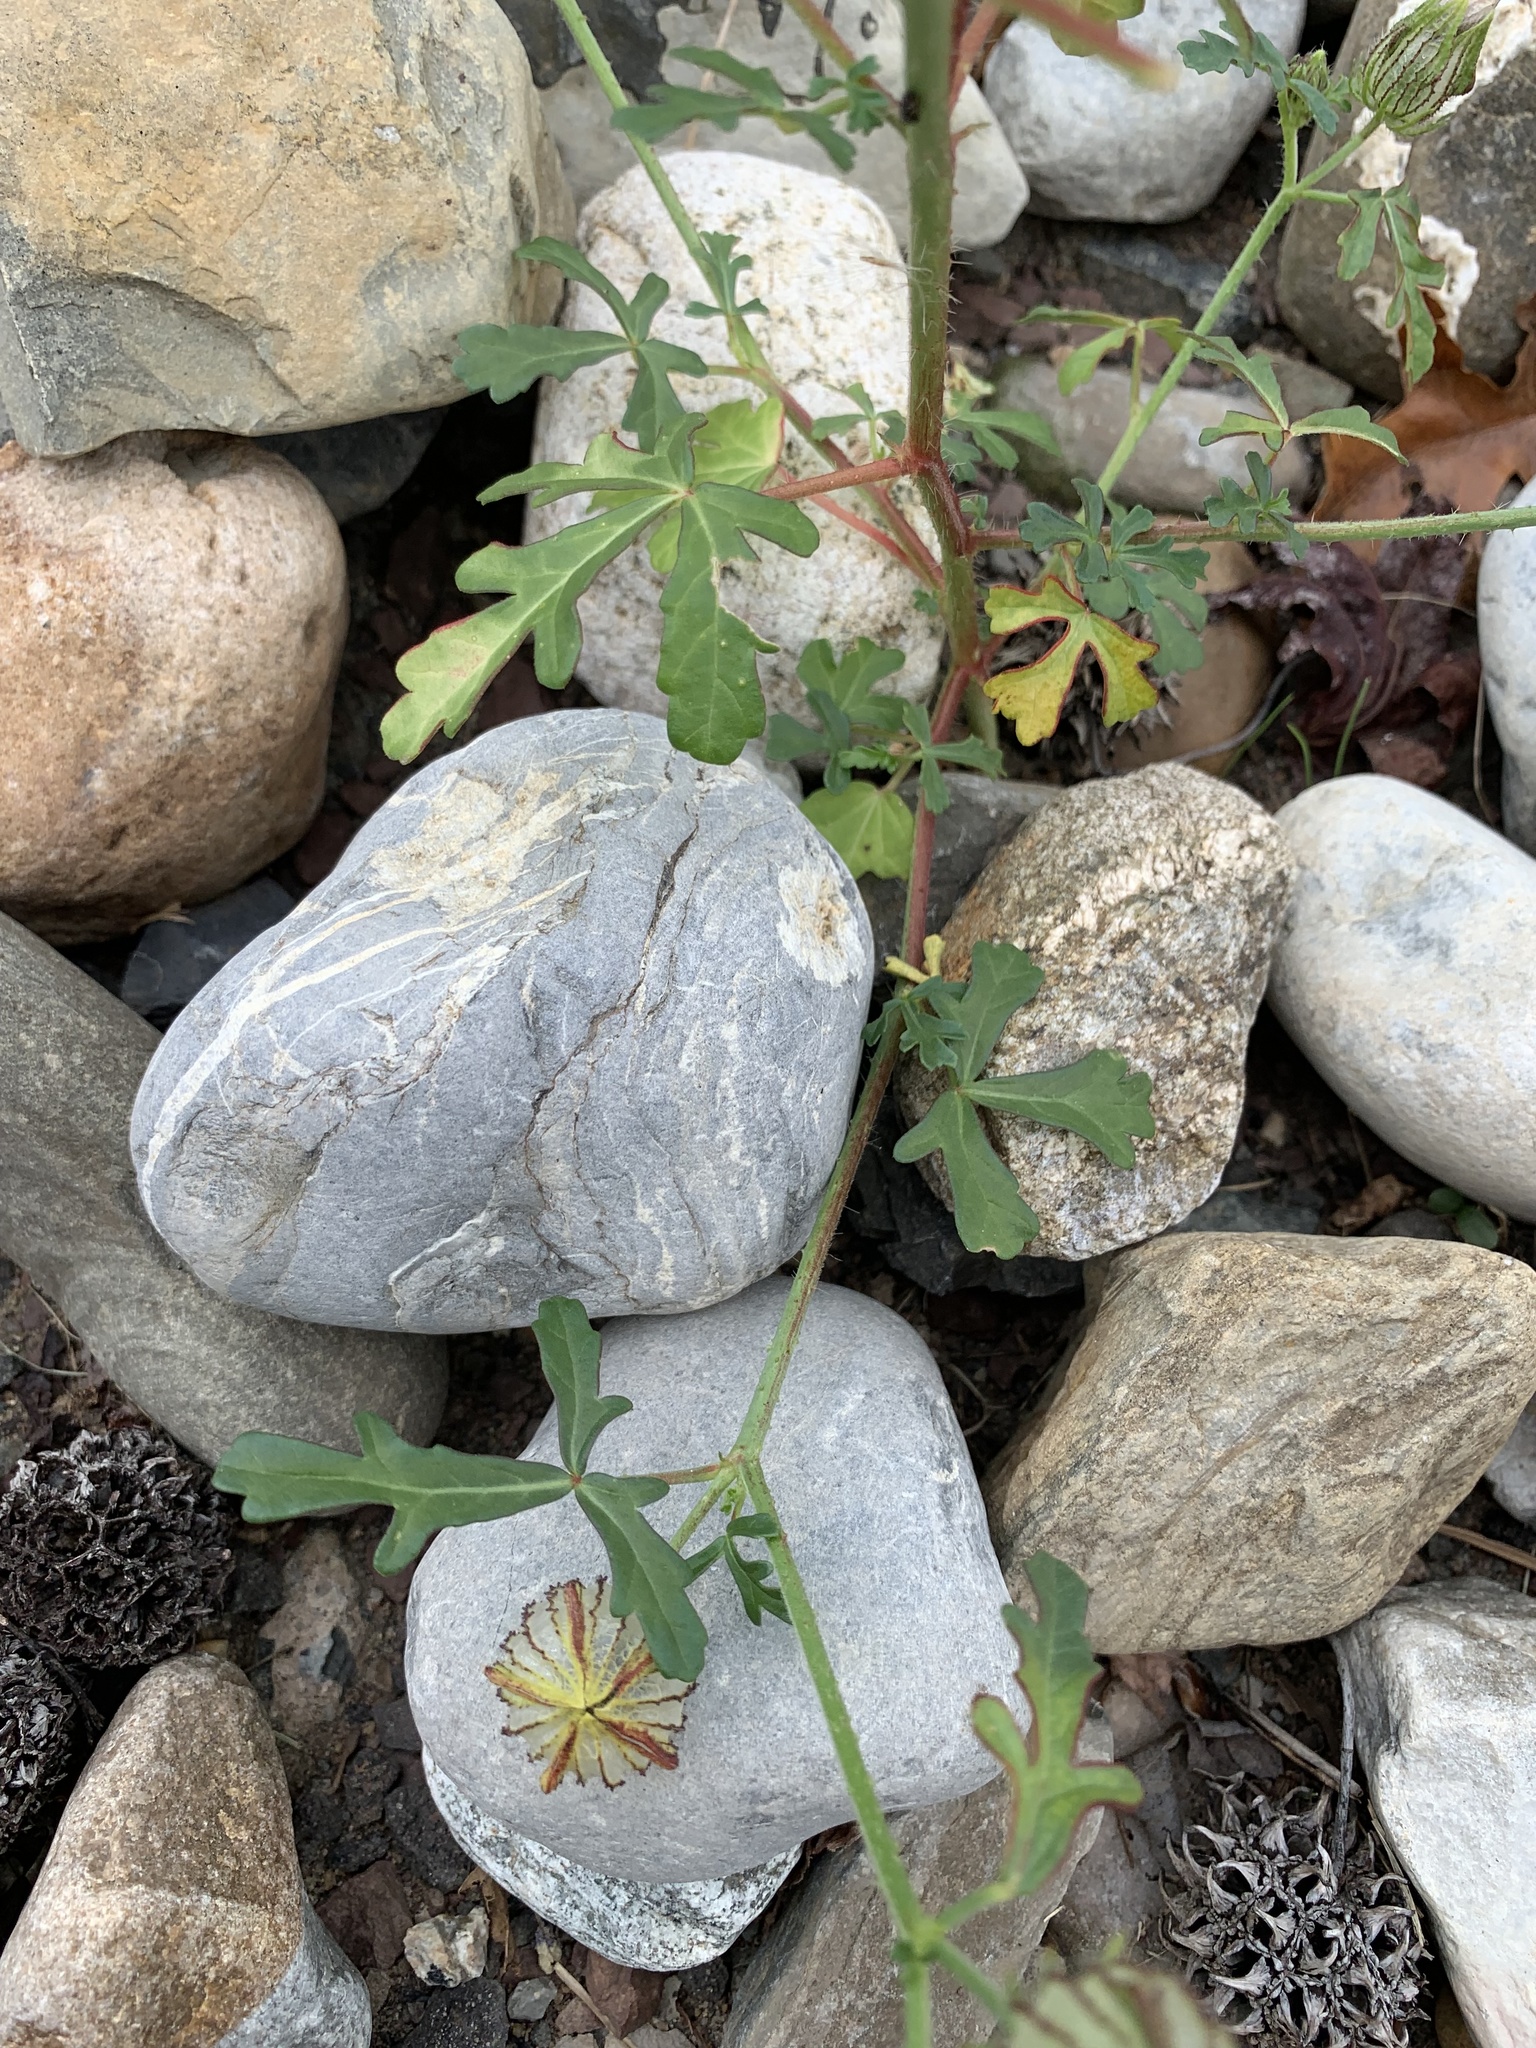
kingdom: Plantae
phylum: Tracheophyta
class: Magnoliopsida
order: Malvales
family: Malvaceae
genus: Hibiscus
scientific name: Hibiscus trionum
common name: Bladder ketmia
